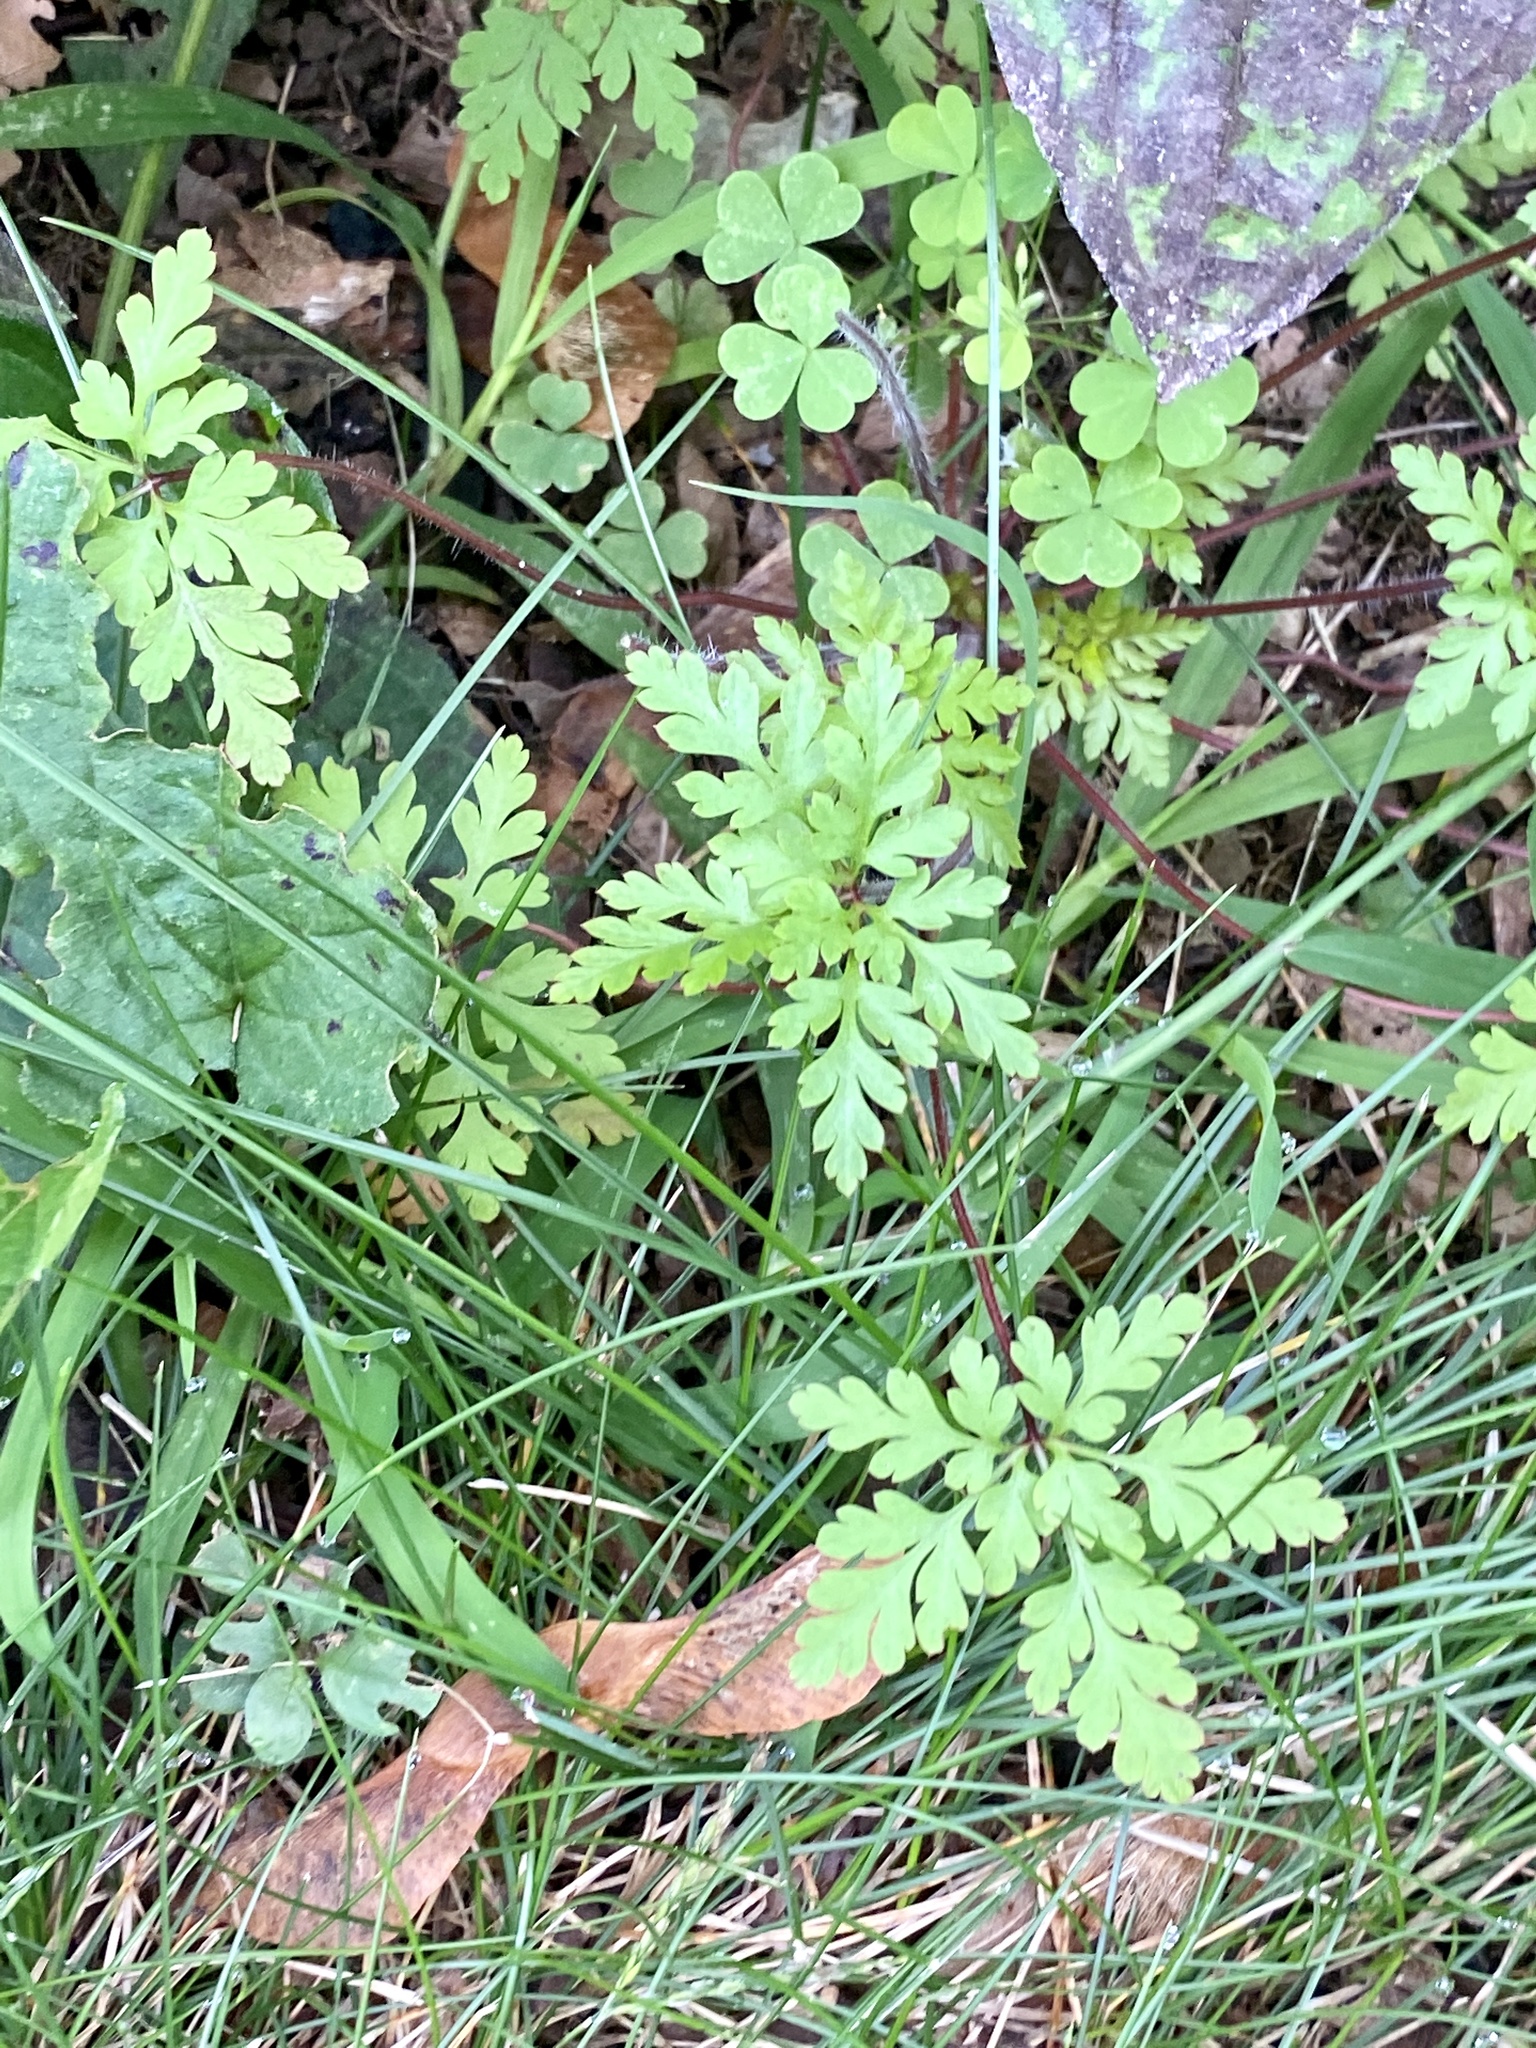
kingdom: Plantae
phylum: Tracheophyta
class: Magnoliopsida
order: Geraniales
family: Geraniaceae
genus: Geranium
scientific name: Geranium robertianum
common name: Herb-robert
